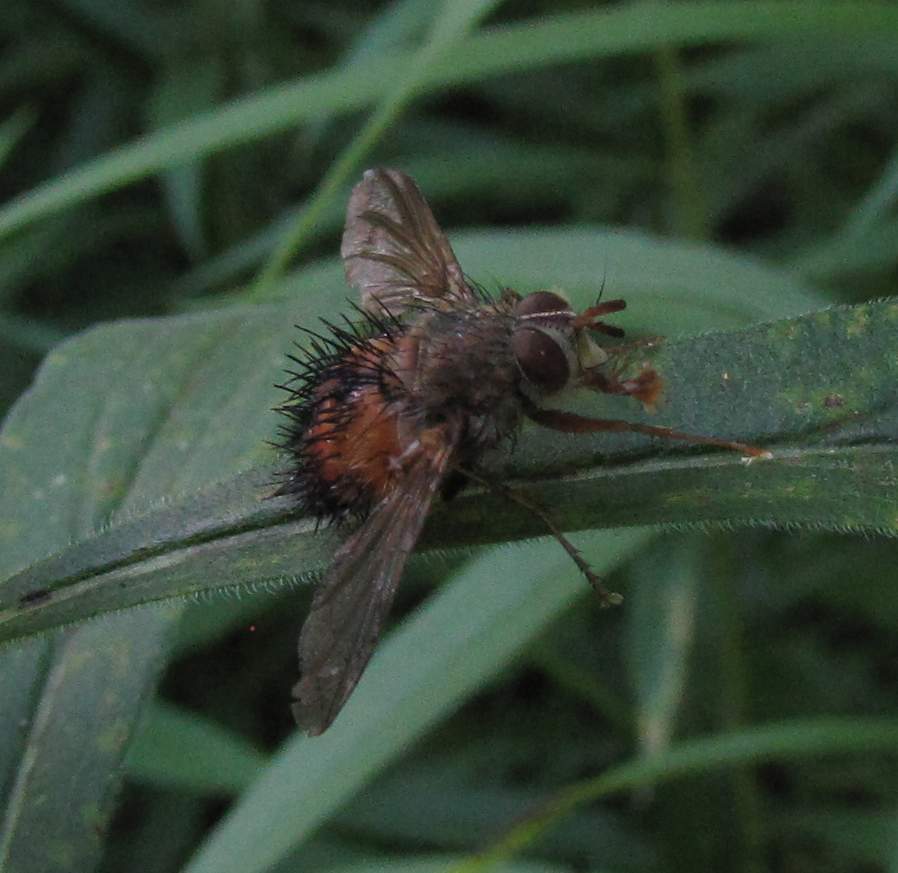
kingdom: Animalia
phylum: Arthropoda
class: Insecta
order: Diptera
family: Tachinidae
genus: Hystricia
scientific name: Hystricia abrupta
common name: Tomato bristle fly
